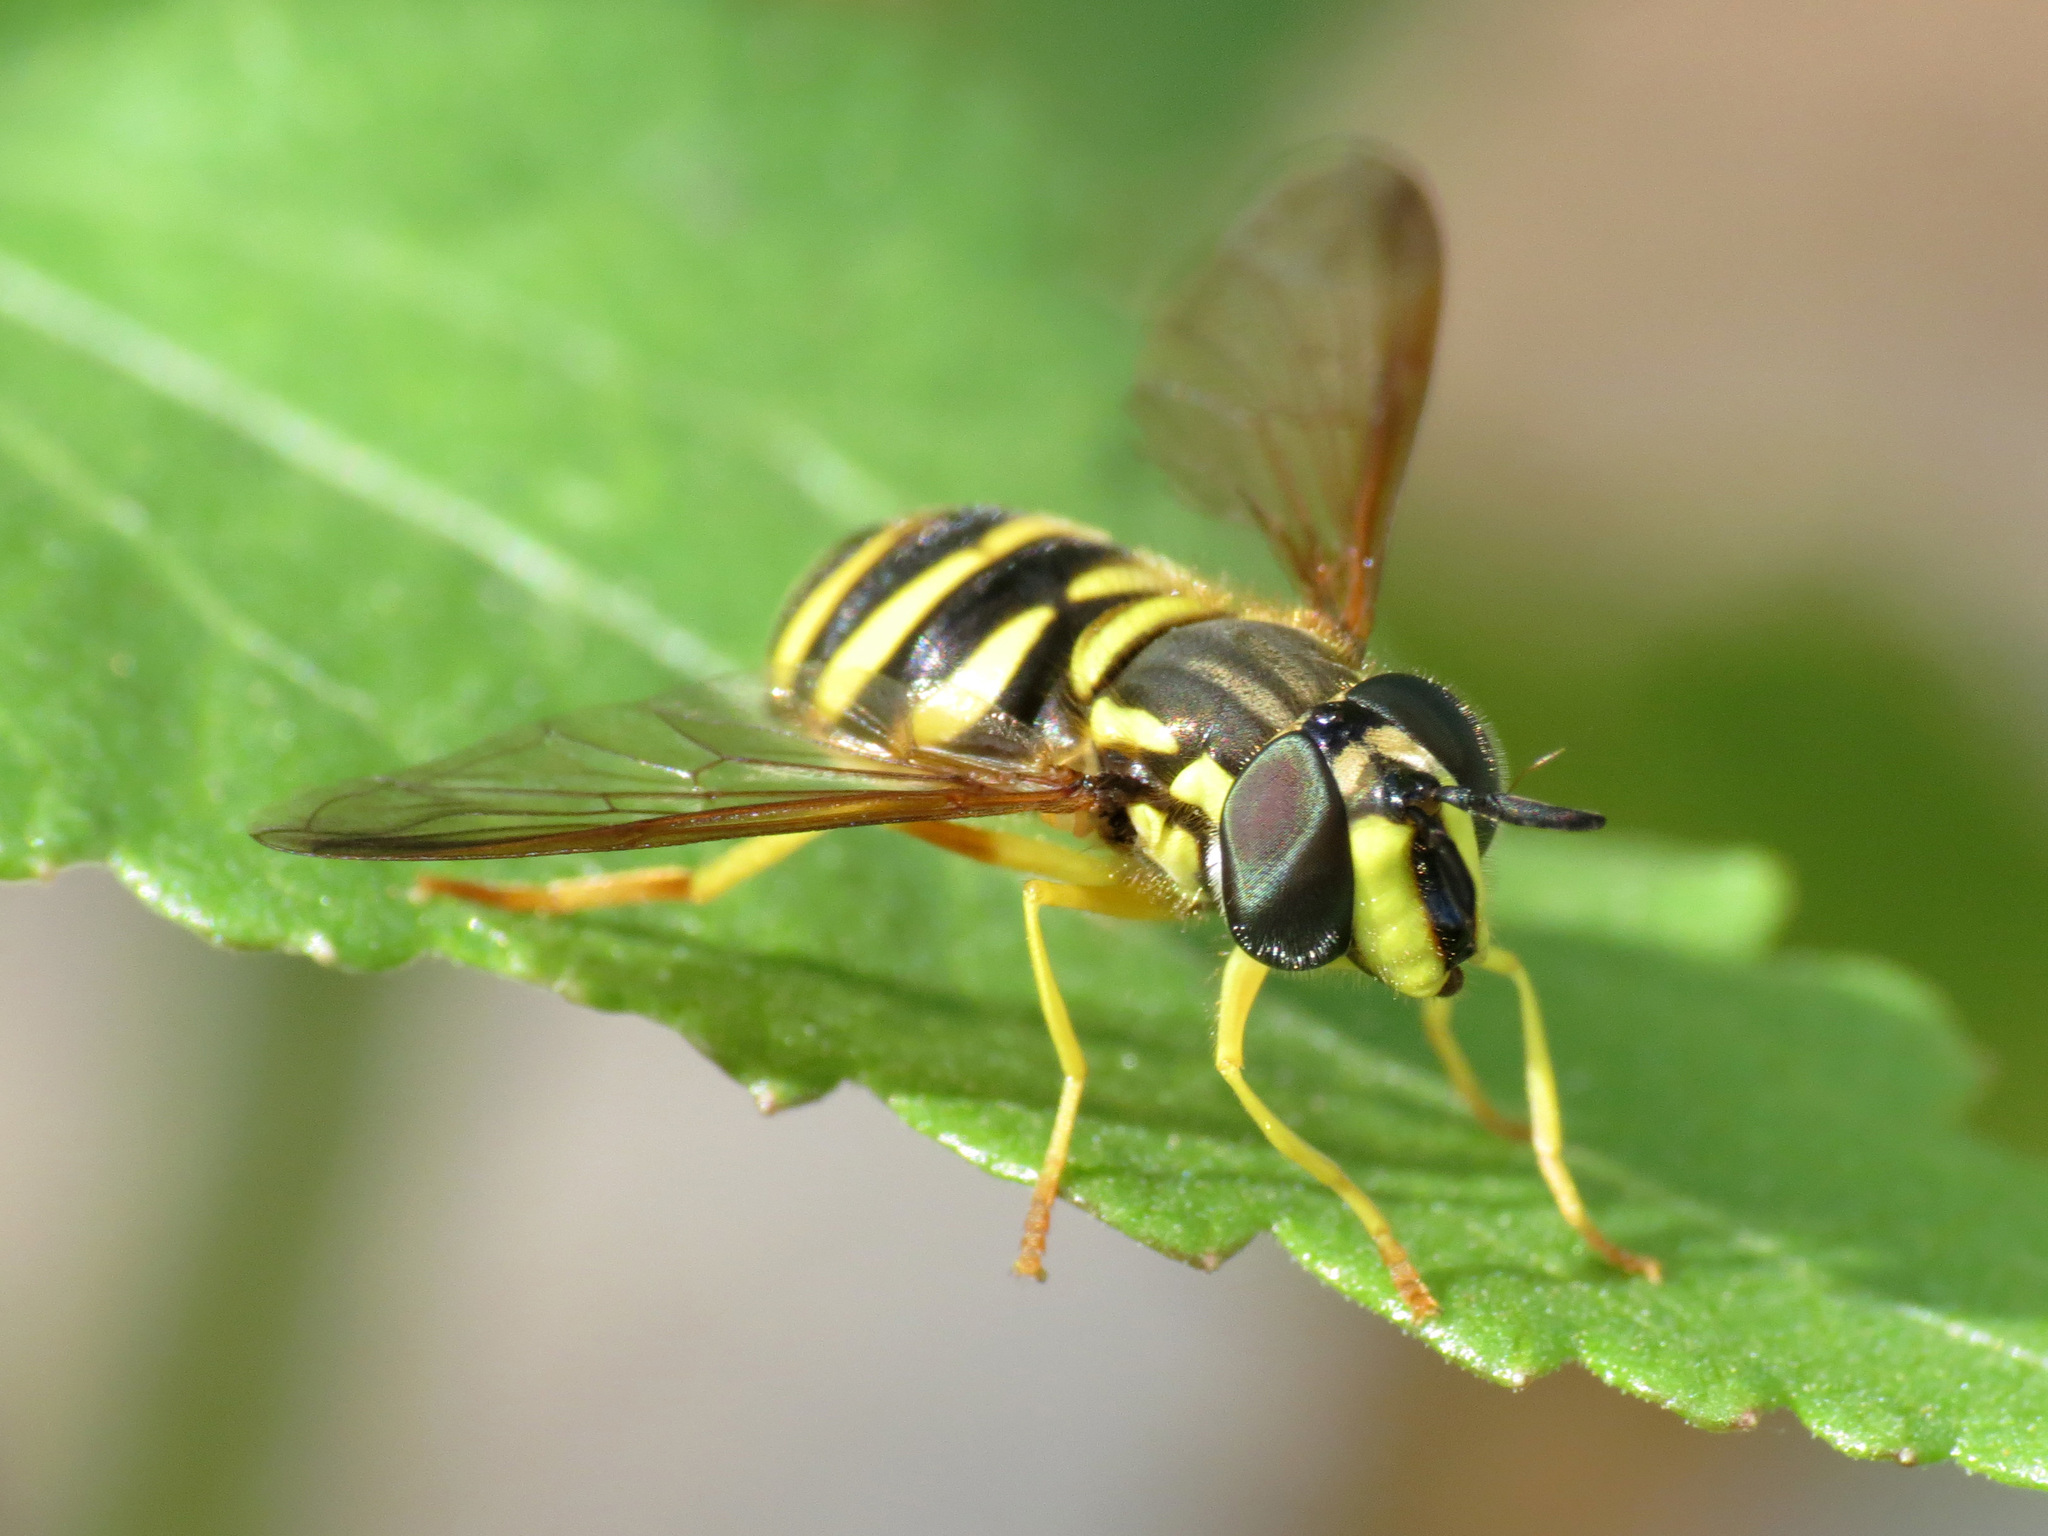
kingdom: Animalia
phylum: Arthropoda
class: Insecta
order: Diptera
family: Syrphidae
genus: Chrysotoxum
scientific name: Chrysotoxum
